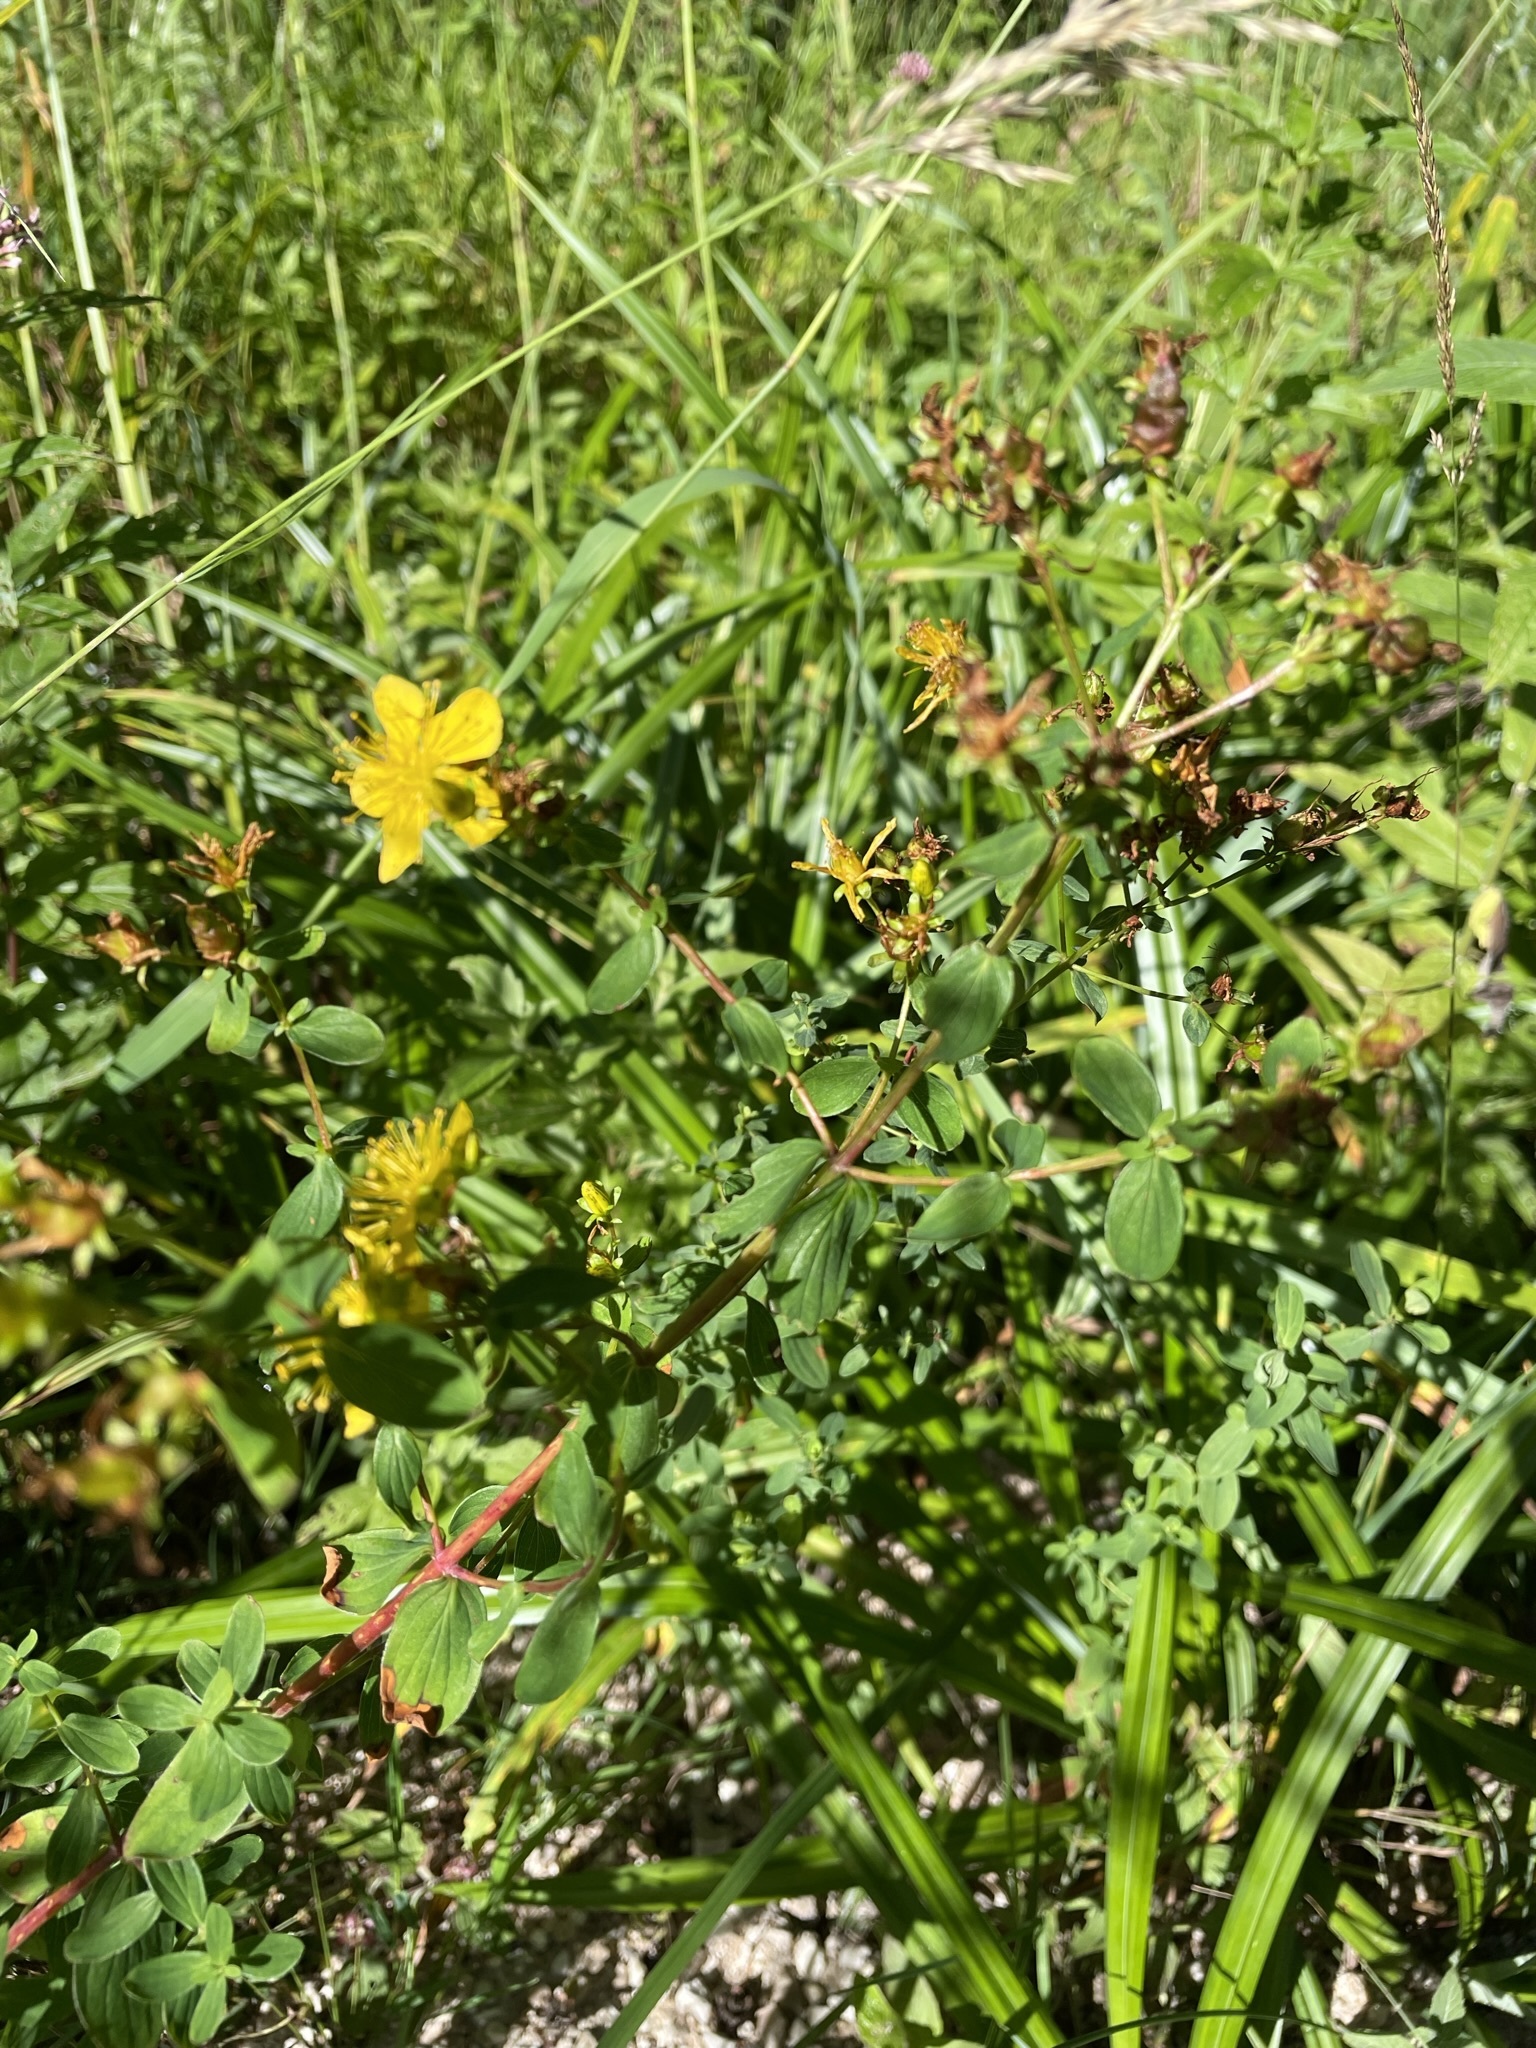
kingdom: Plantae
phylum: Tracheophyta
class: Magnoliopsida
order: Malpighiales
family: Hypericaceae
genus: Hypericum
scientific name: Hypericum maculatum
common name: Imperforate st. john's-wort
